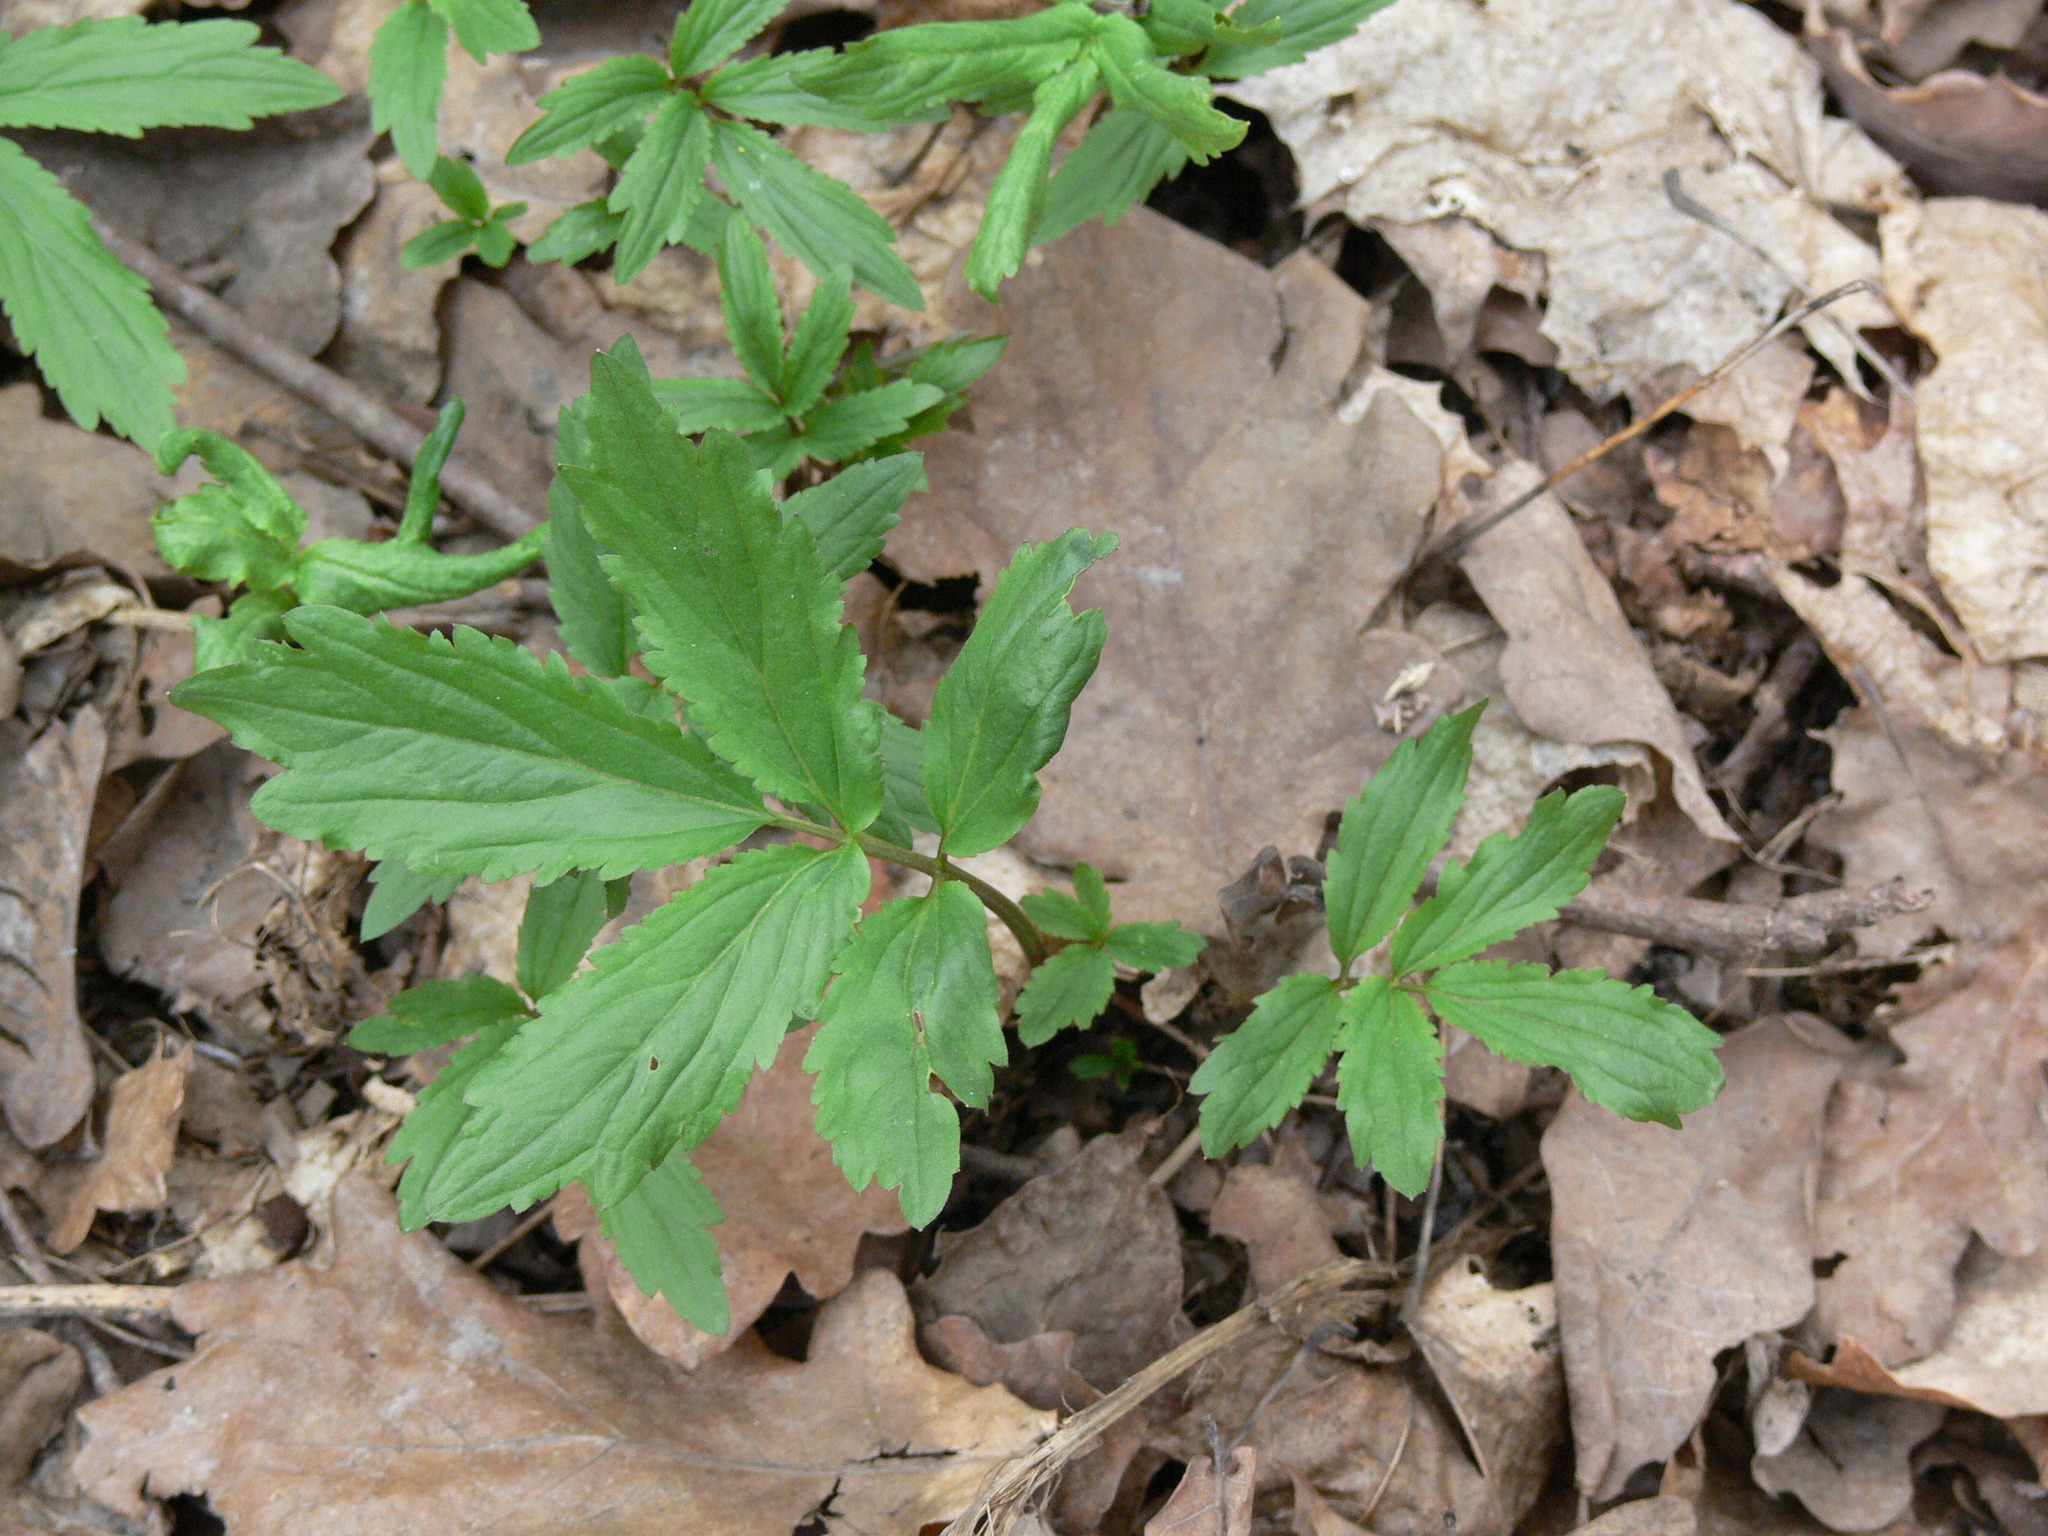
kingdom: Plantae
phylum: Tracheophyta
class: Magnoliopsida
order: Brassicales
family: Brassicaceae
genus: Cardamine
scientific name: Cardamine quinquefolia
